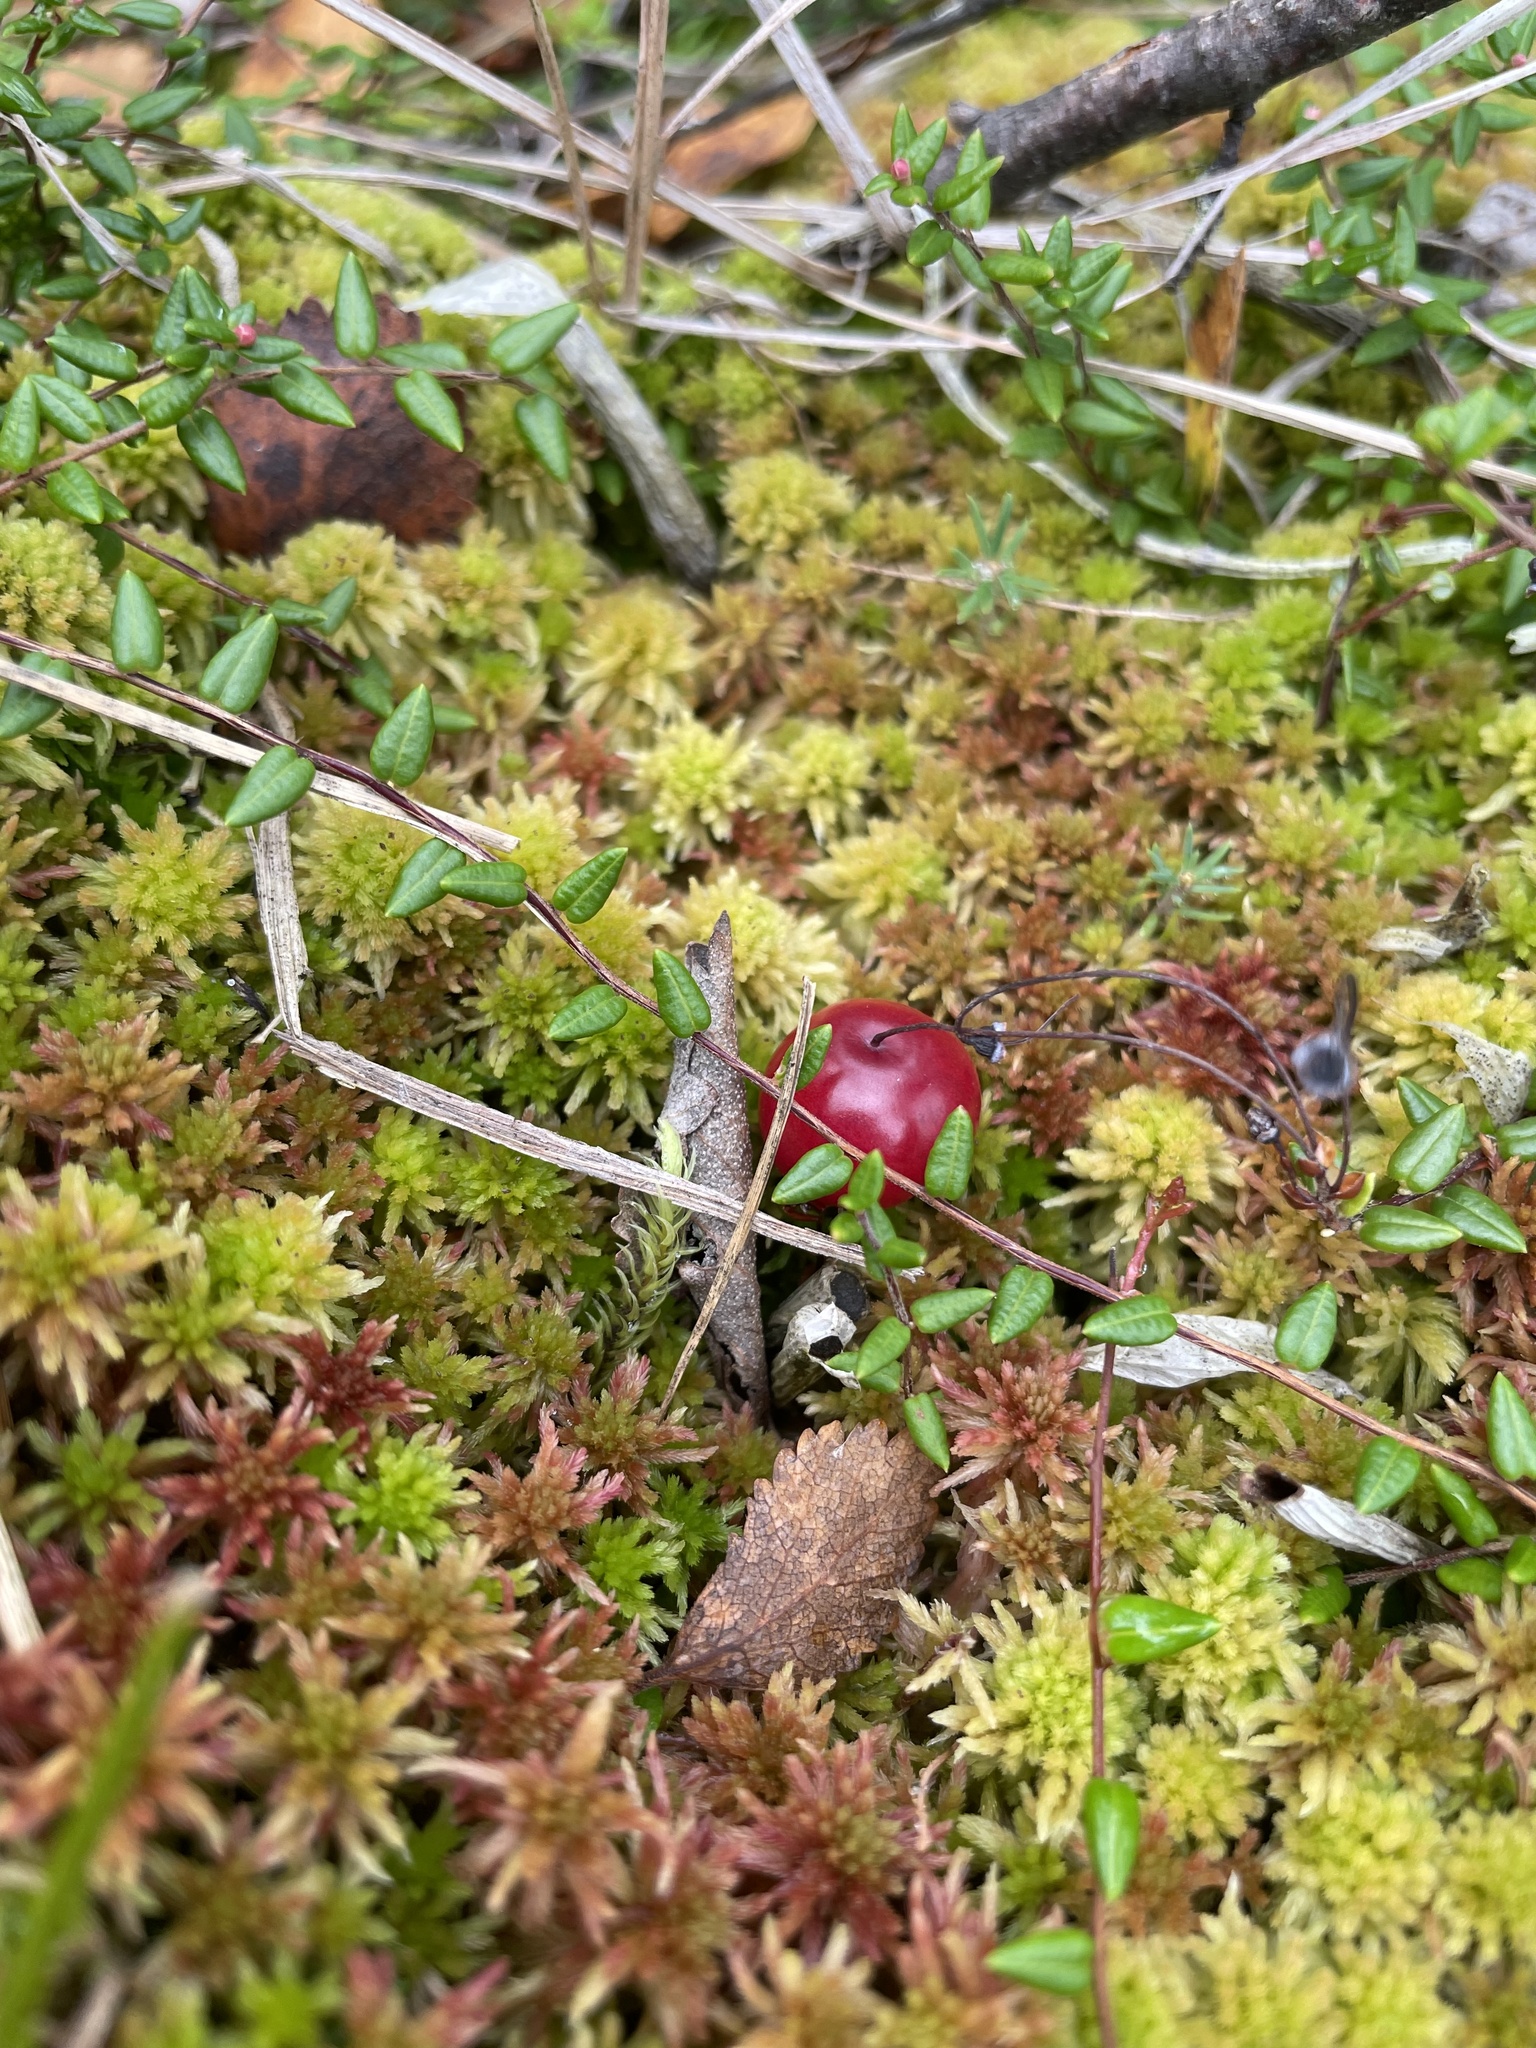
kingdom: Plantae
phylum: Tracheophyta
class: Magnoliopsida
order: Ericales
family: Ericaceae
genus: Vaccinium
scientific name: Vaccinium oxycoccos
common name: Cranberry
